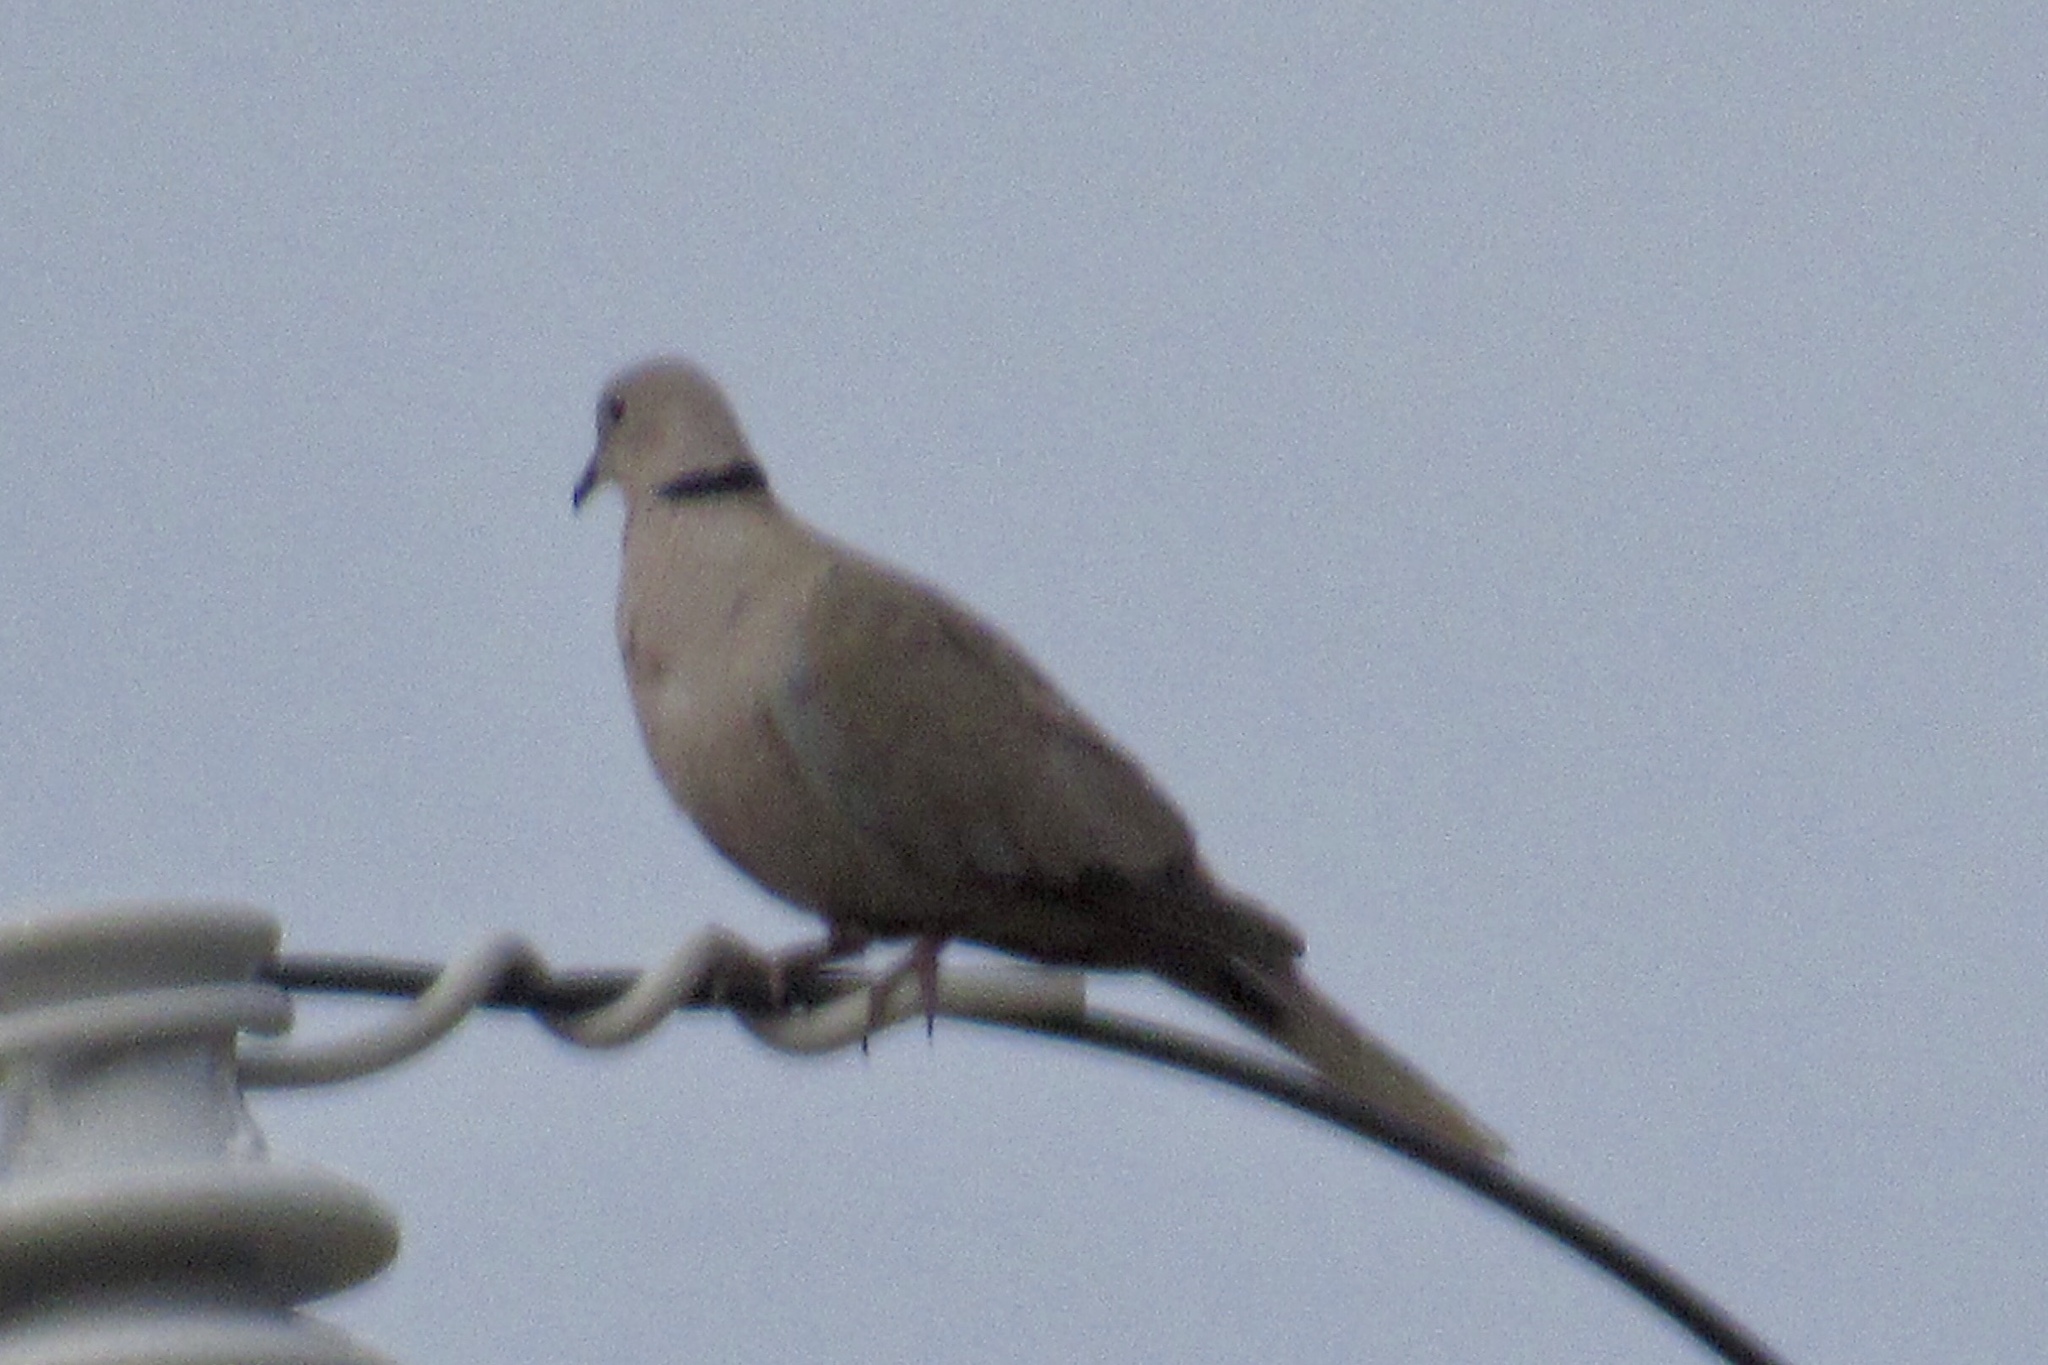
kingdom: Animalia
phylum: Chordata
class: Aves
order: Columbiformes
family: Columbidae
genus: Streptopelia
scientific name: Streptopelia decaocto
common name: Eurasian collared dove
